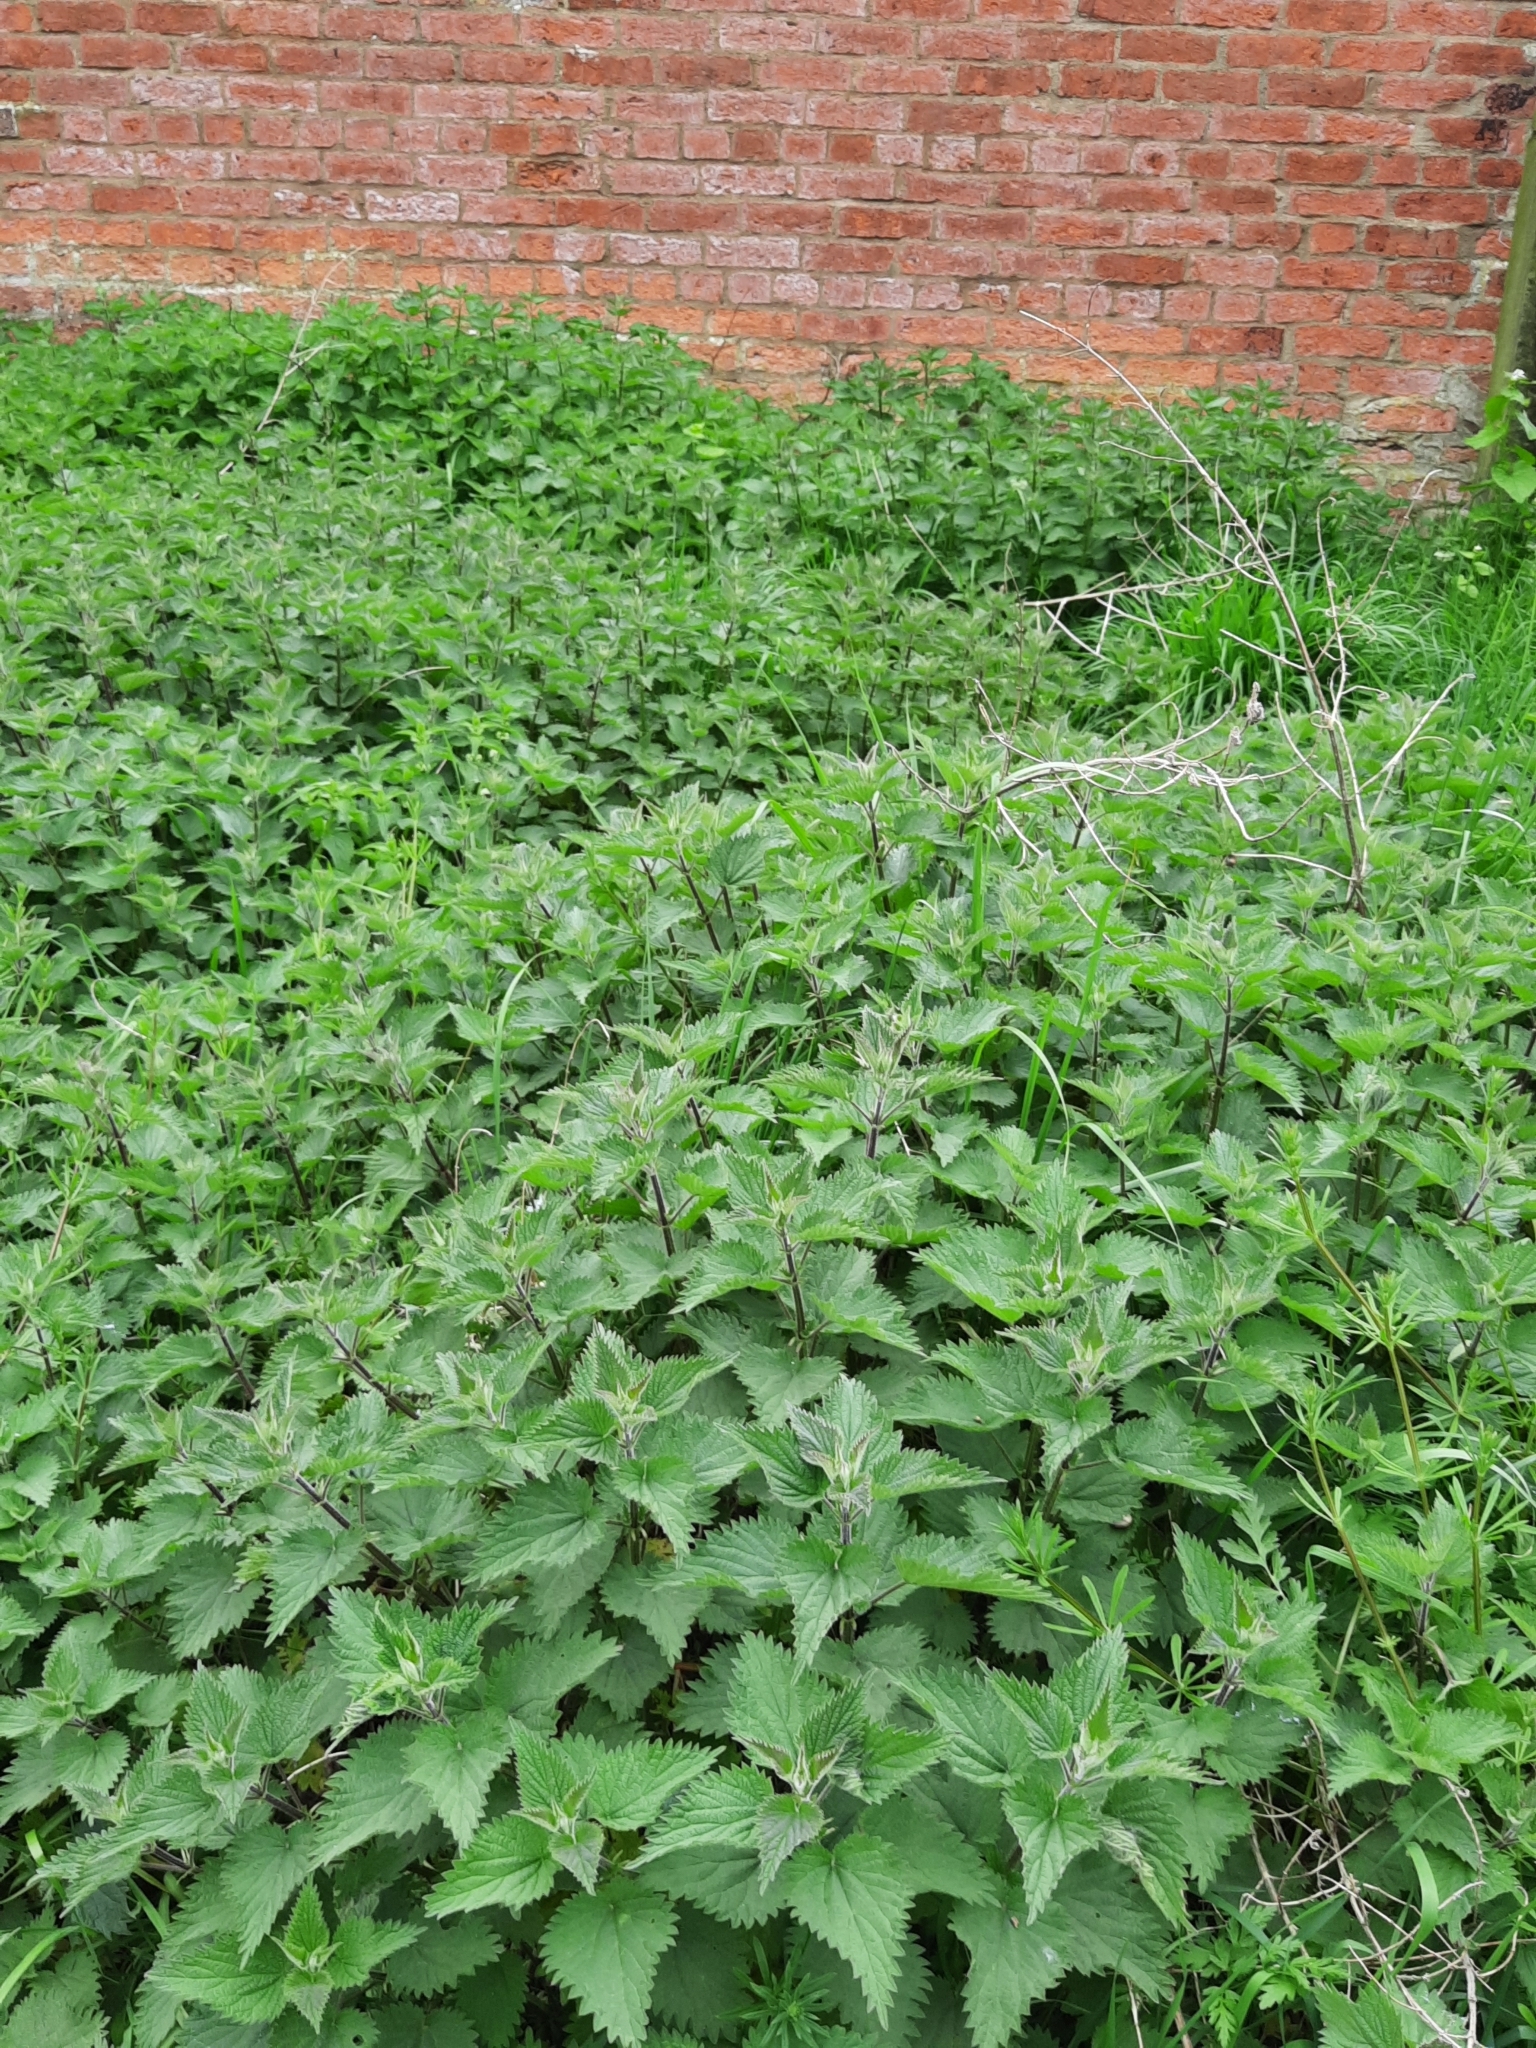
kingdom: Plantae
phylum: Tracheophyta
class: Magnoliopsida
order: Rosales
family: Urticaceae
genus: Urtica
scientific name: Urtica dioica
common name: Common nettle
